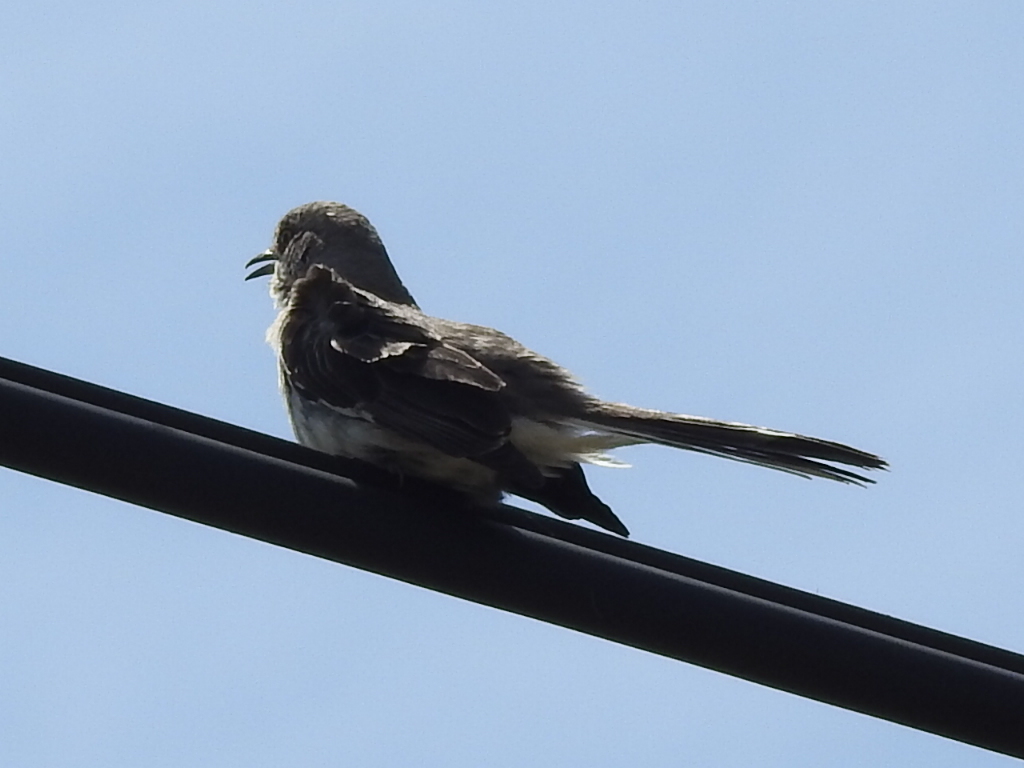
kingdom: Animalia
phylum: Chordata
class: Aves
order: Passeriformes
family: Mimidae
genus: Mimus
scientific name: Mimus polyglottos
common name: Northern mockingbird
